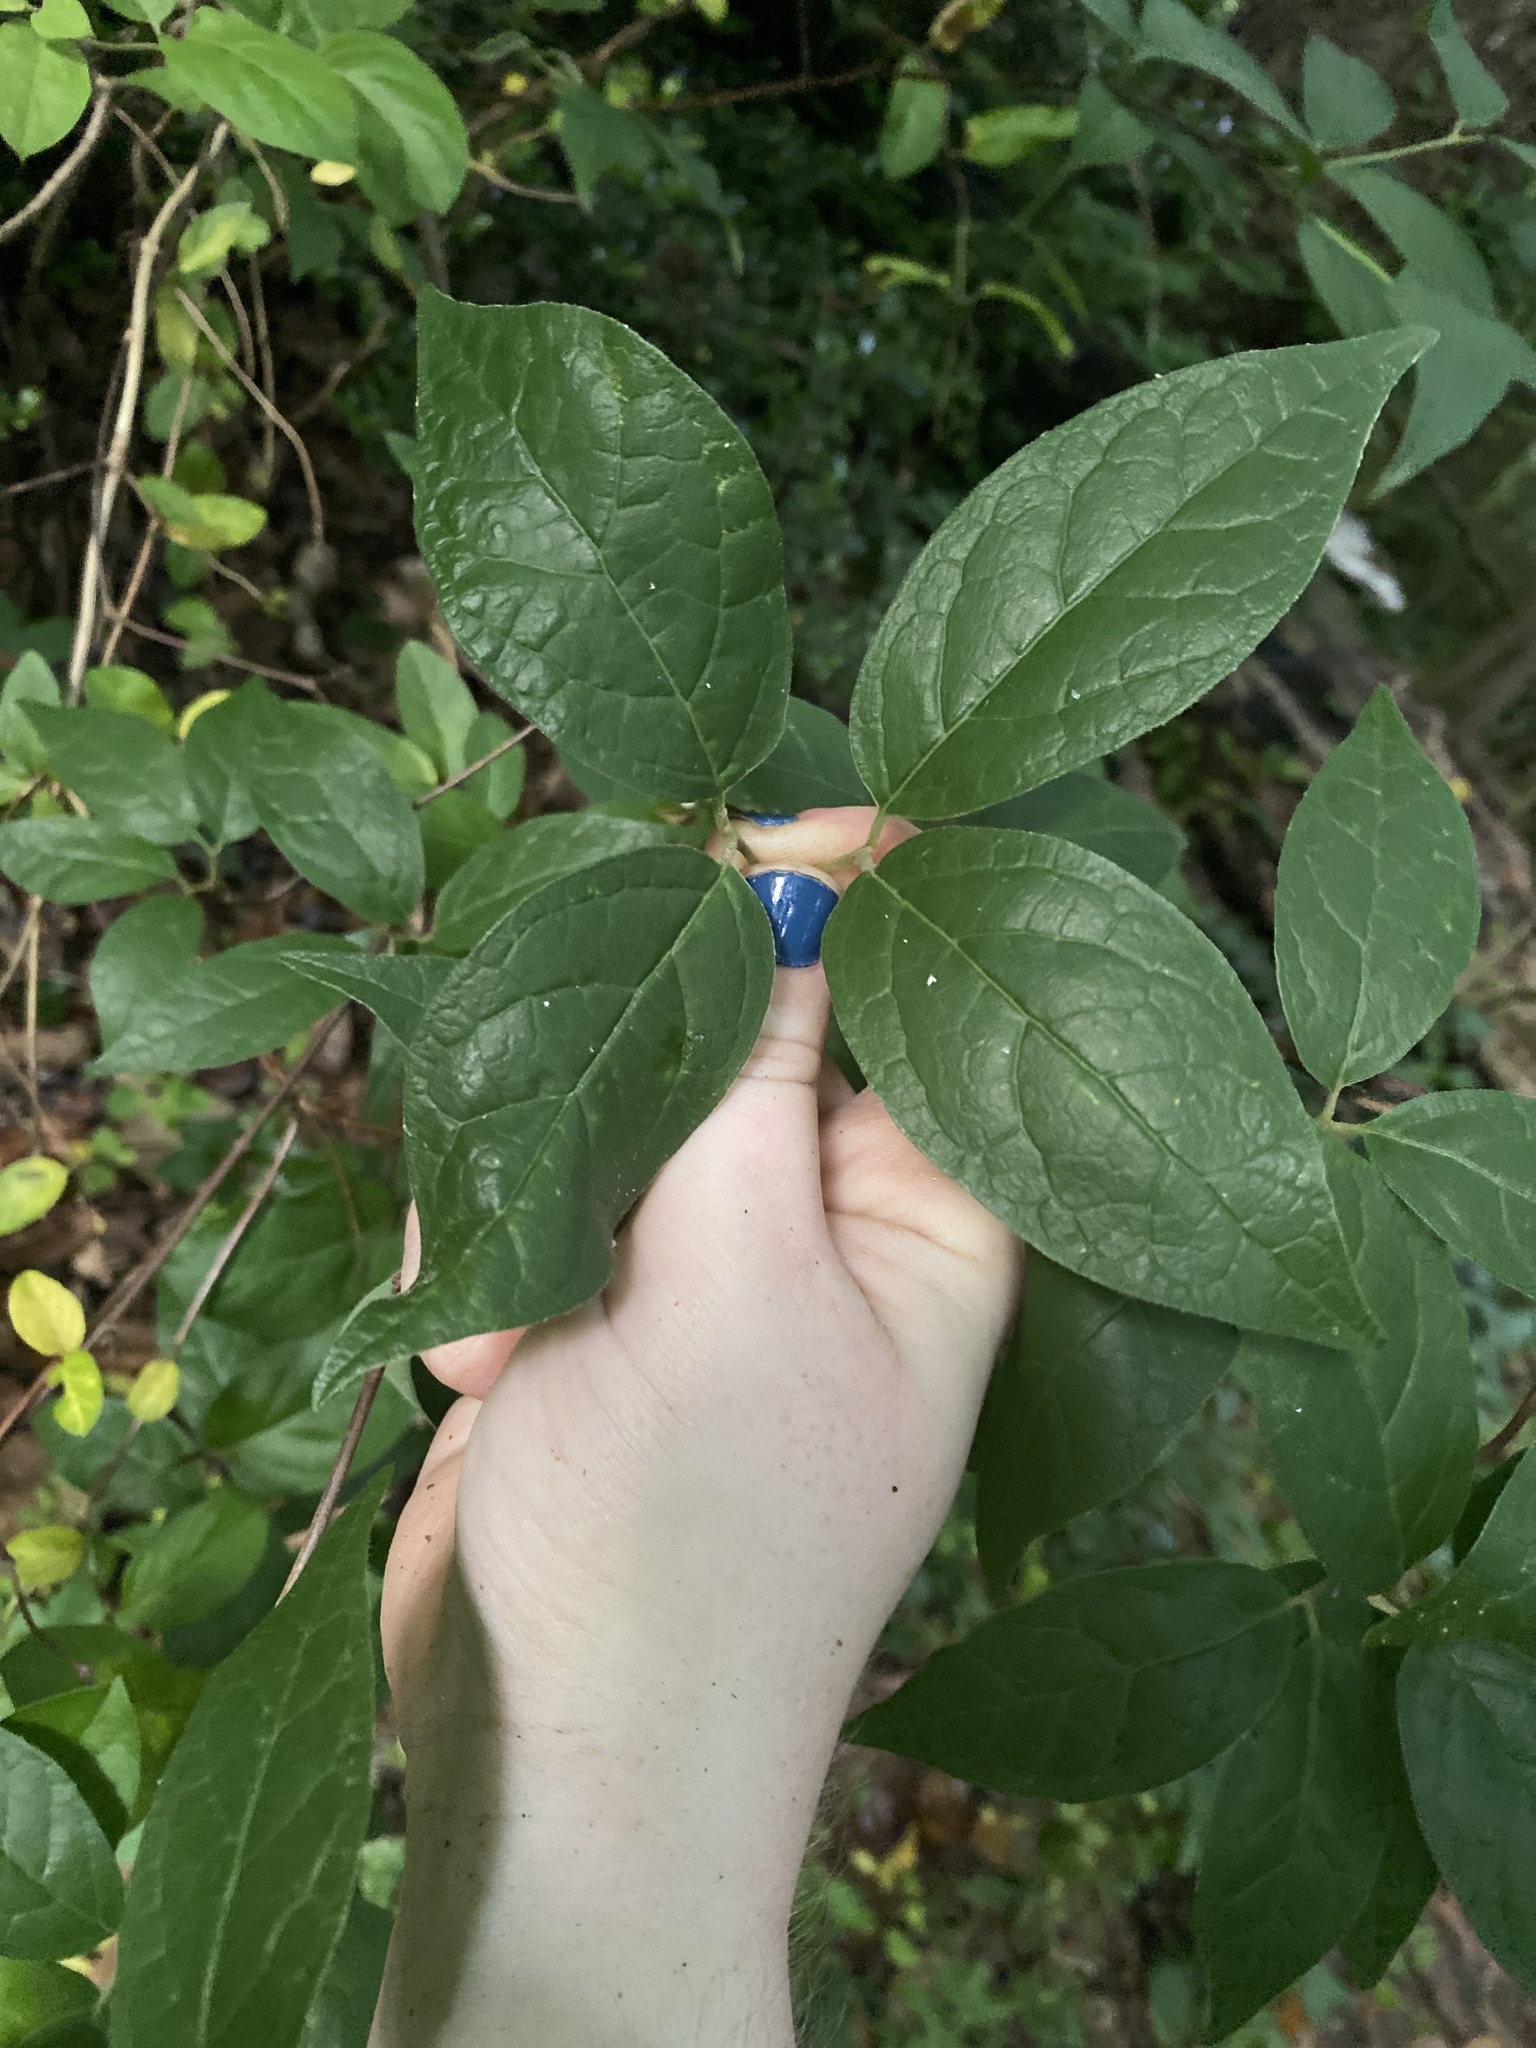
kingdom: Plantae
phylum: Tracheophyta
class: Magnoliopsida
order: Laurales
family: Calycanthaceae
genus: Calycanthus
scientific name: Calycanthus floridus
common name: Carolina-allspice
